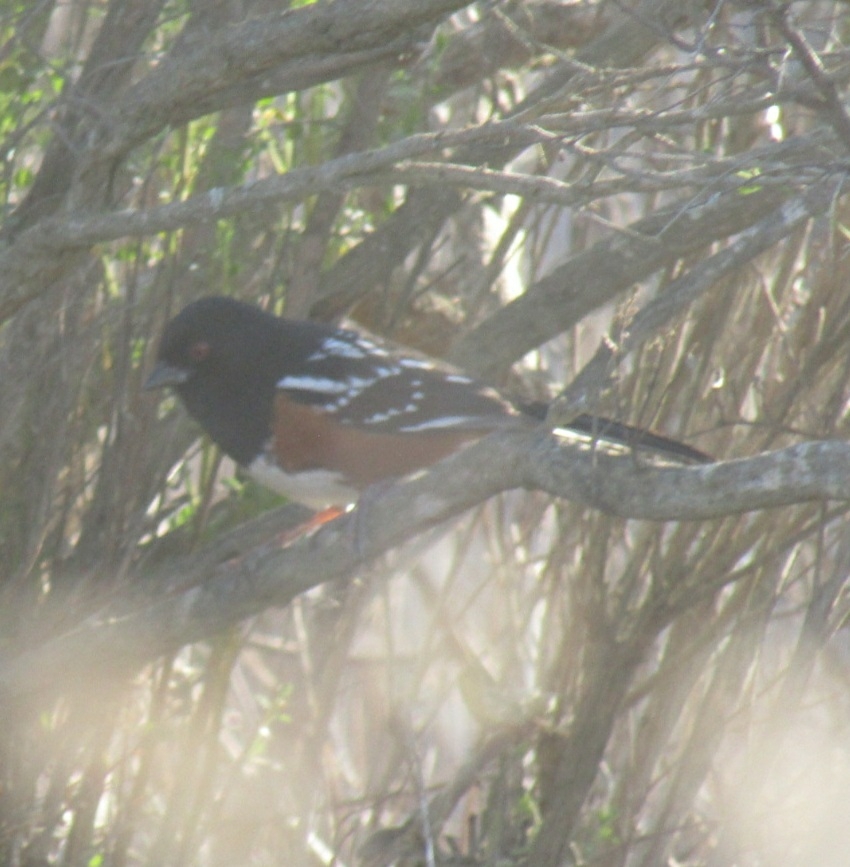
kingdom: Animalia
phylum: Chordata
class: Aves
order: Passeriformes
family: Passerellidae
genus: Pipilo
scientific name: Pipilo maculatus
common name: Spotted towhee
